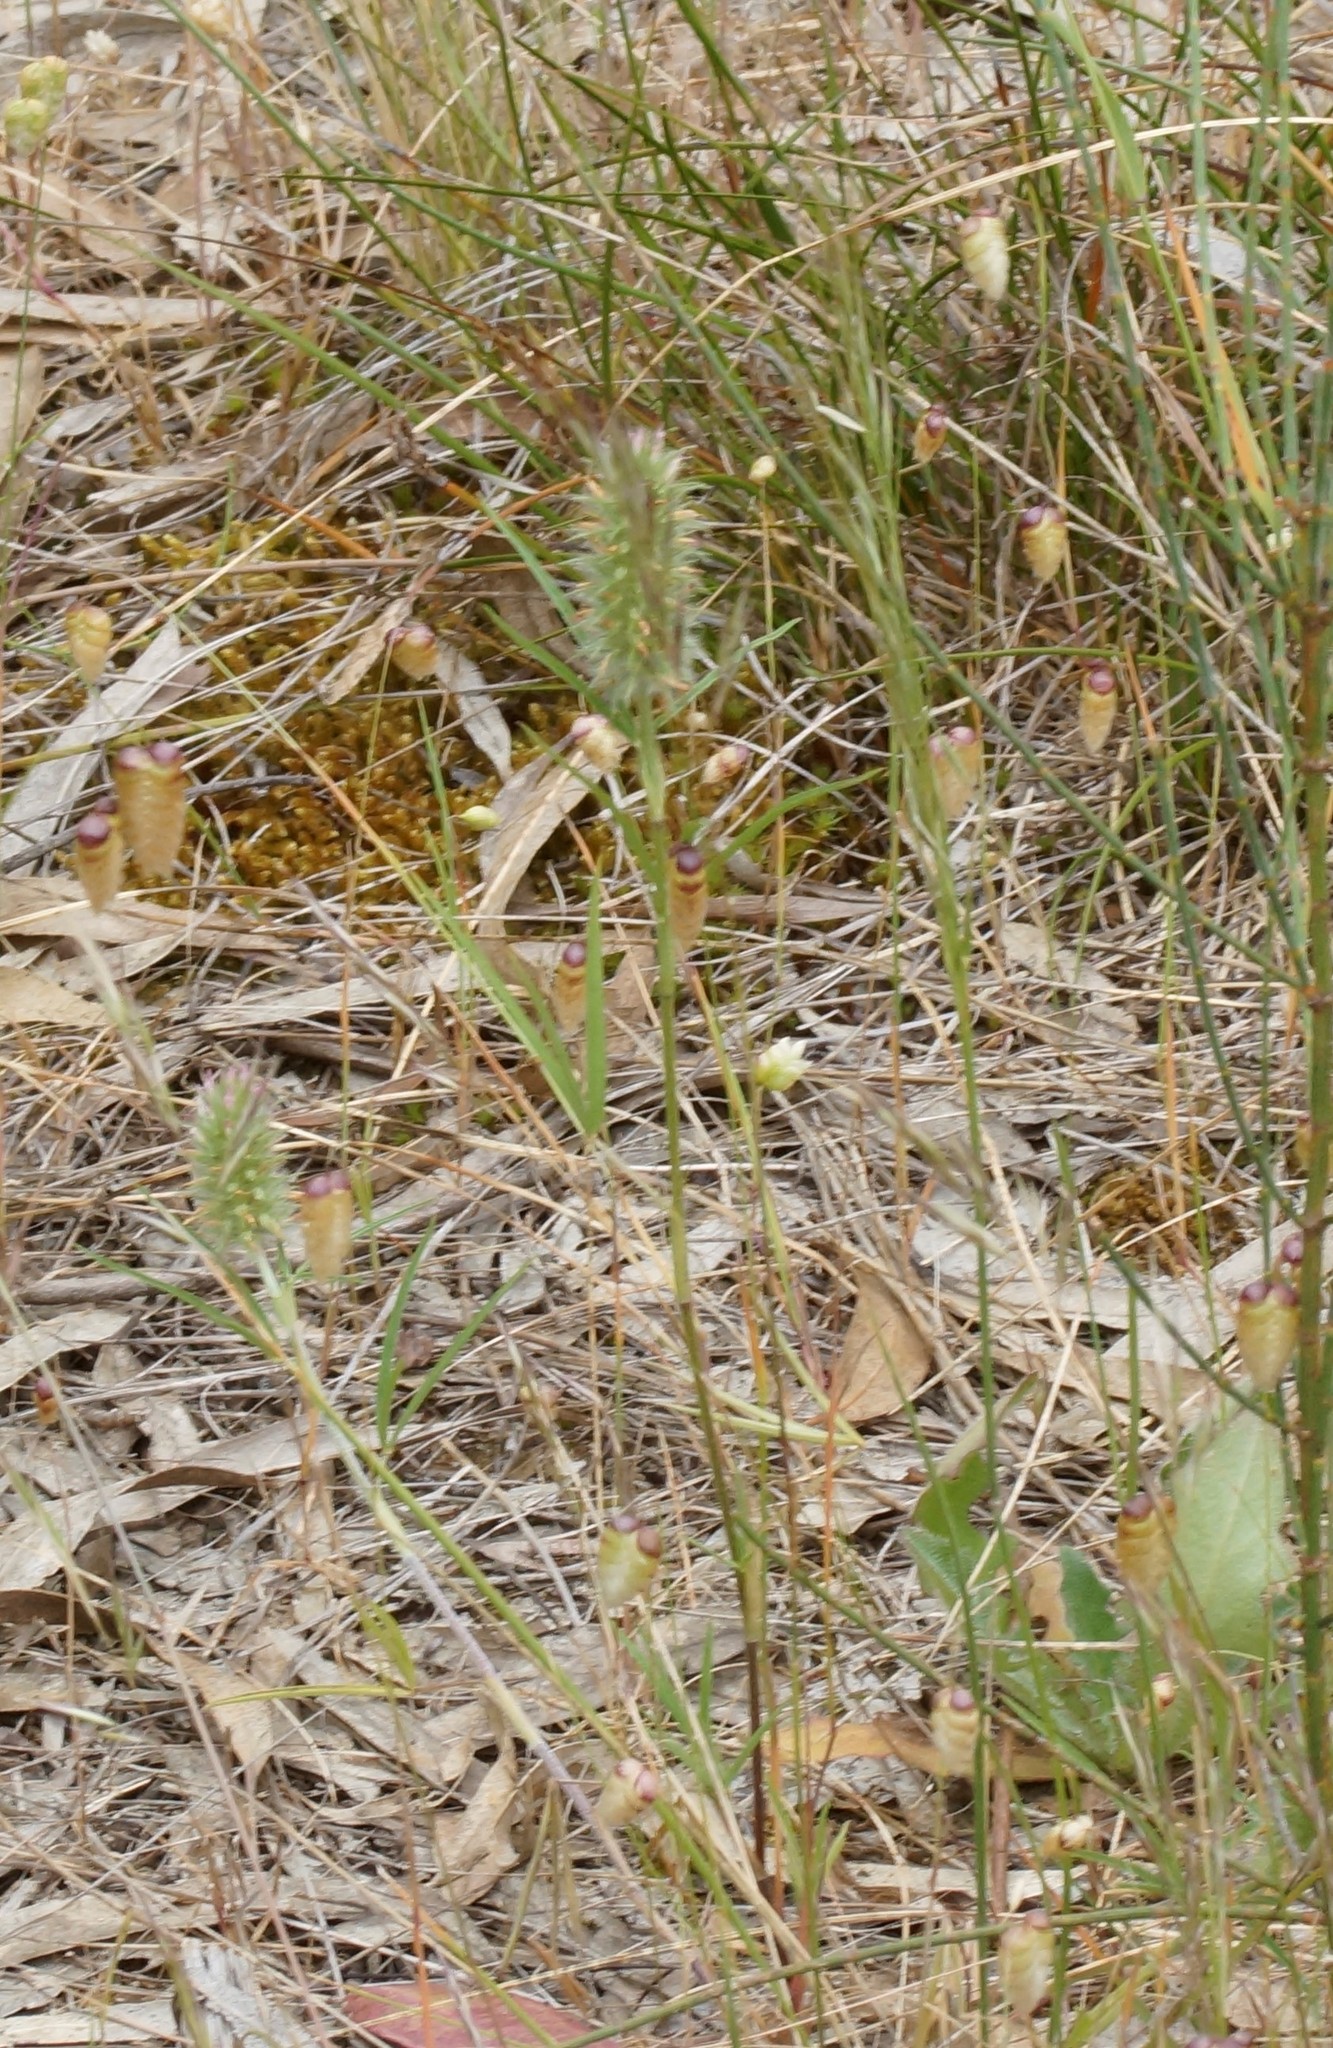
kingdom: Plantae
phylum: Tracheophyta
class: Magnoliopsida
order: Fabales
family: Fabaceae
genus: Trifolium
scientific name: Trifolium arvense
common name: Hare's-foot clover
